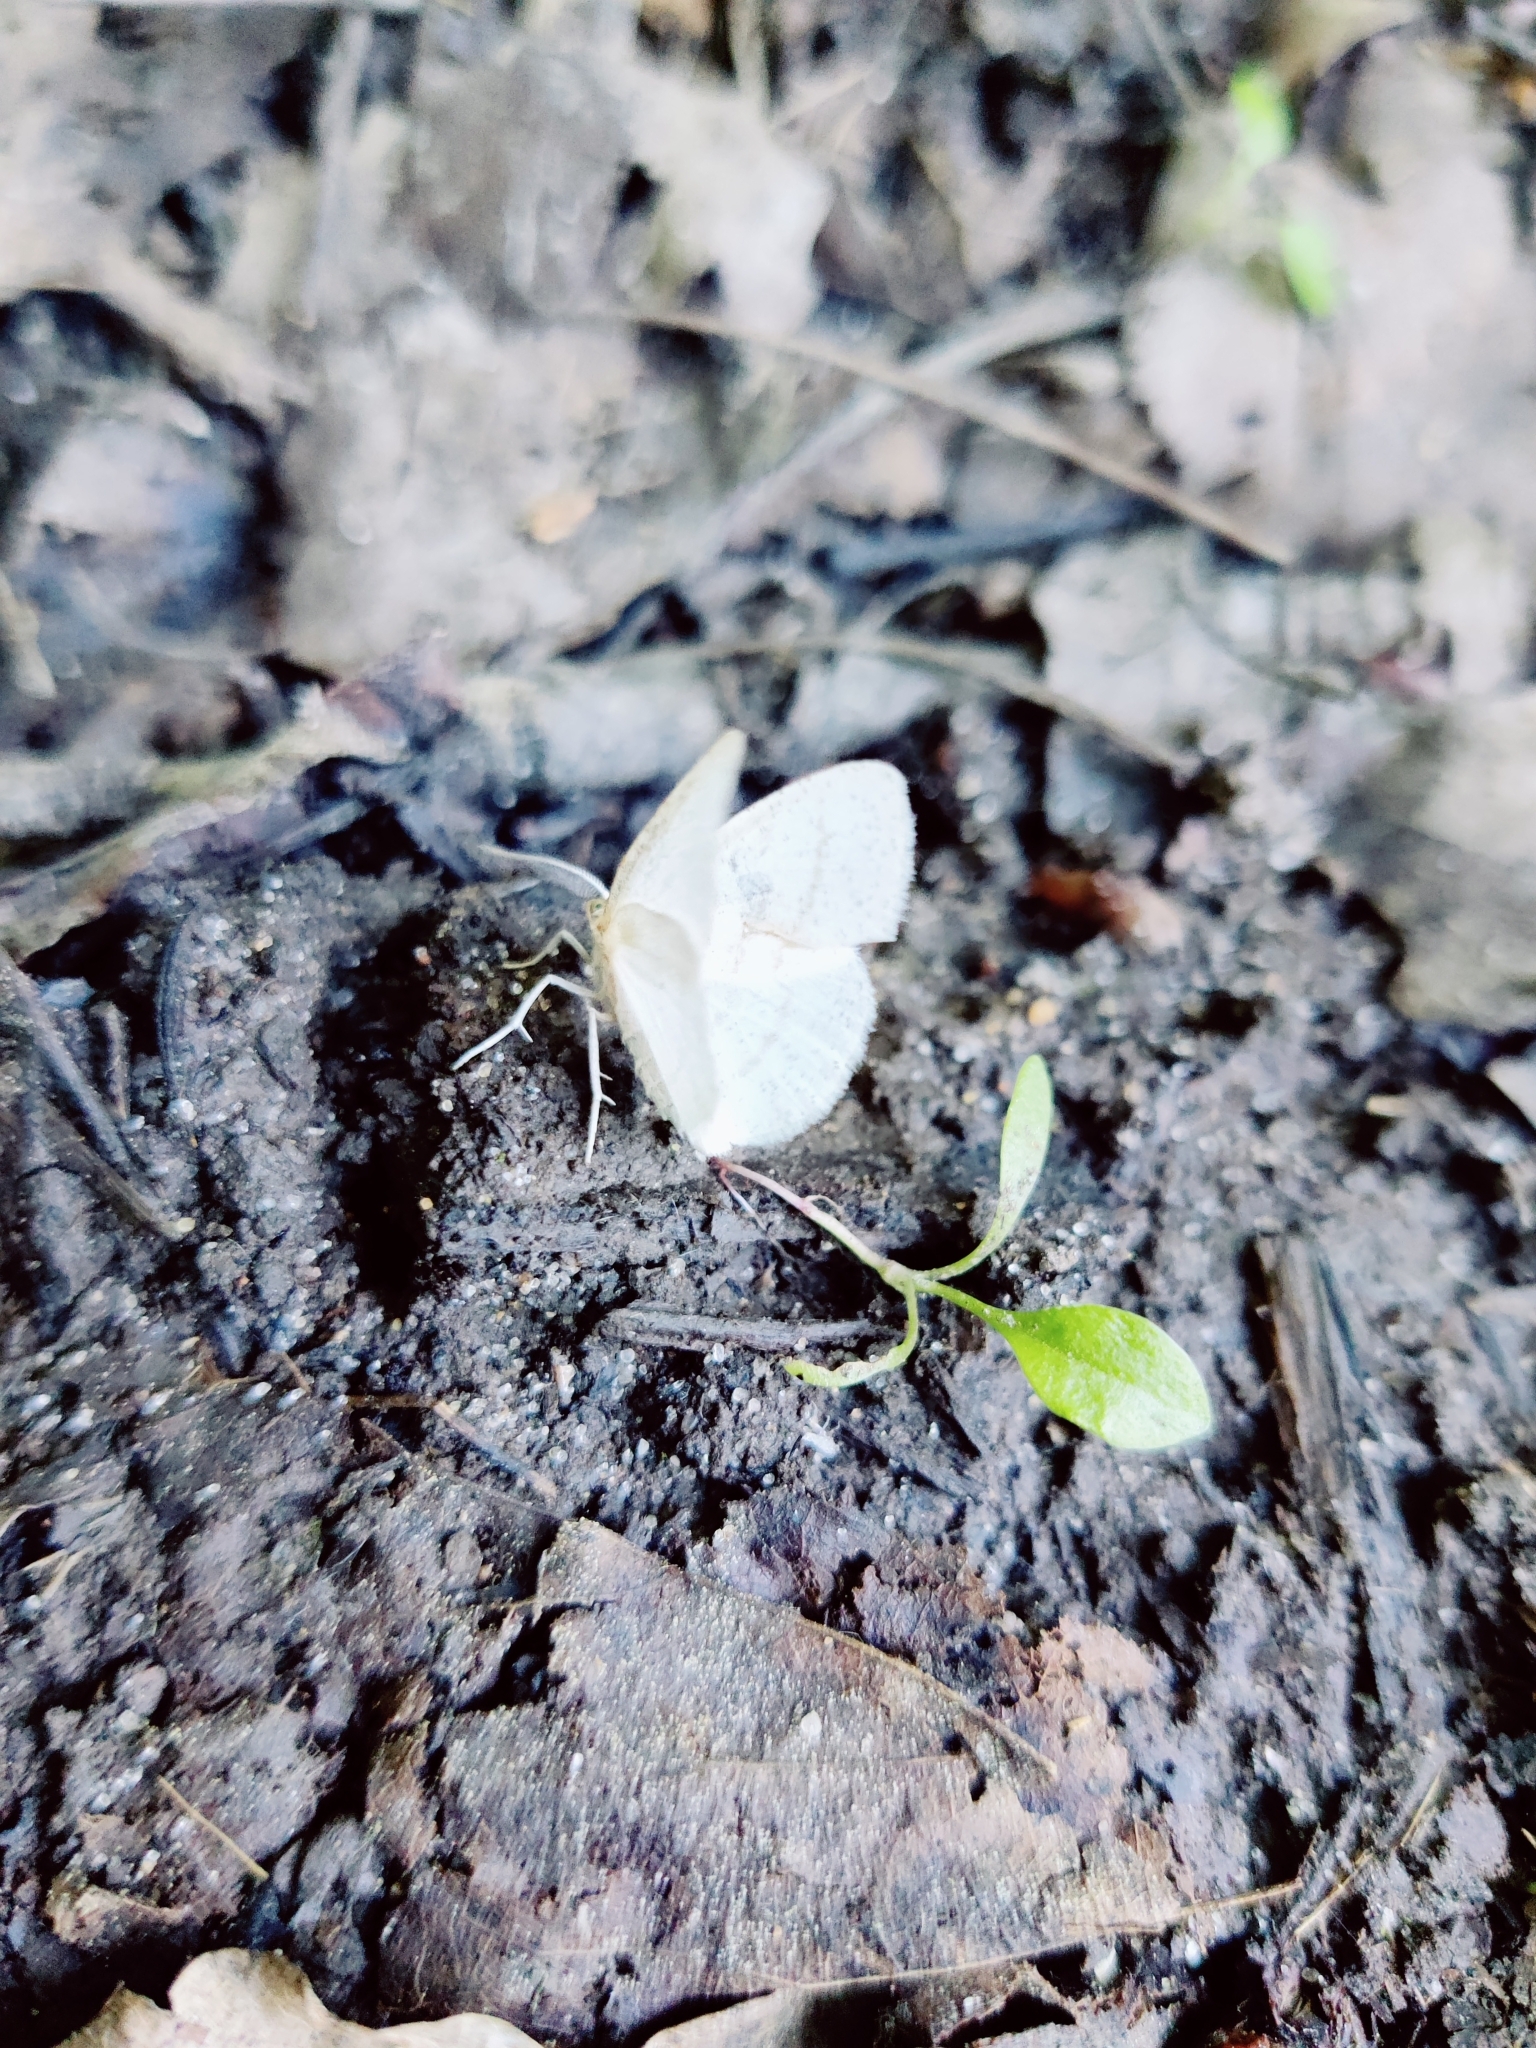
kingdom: Animalia
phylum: Arthropoda
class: Insecta
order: Lepidoptera
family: Geometridae
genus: Cabera
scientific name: Cabera pusaria
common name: Common white wave
